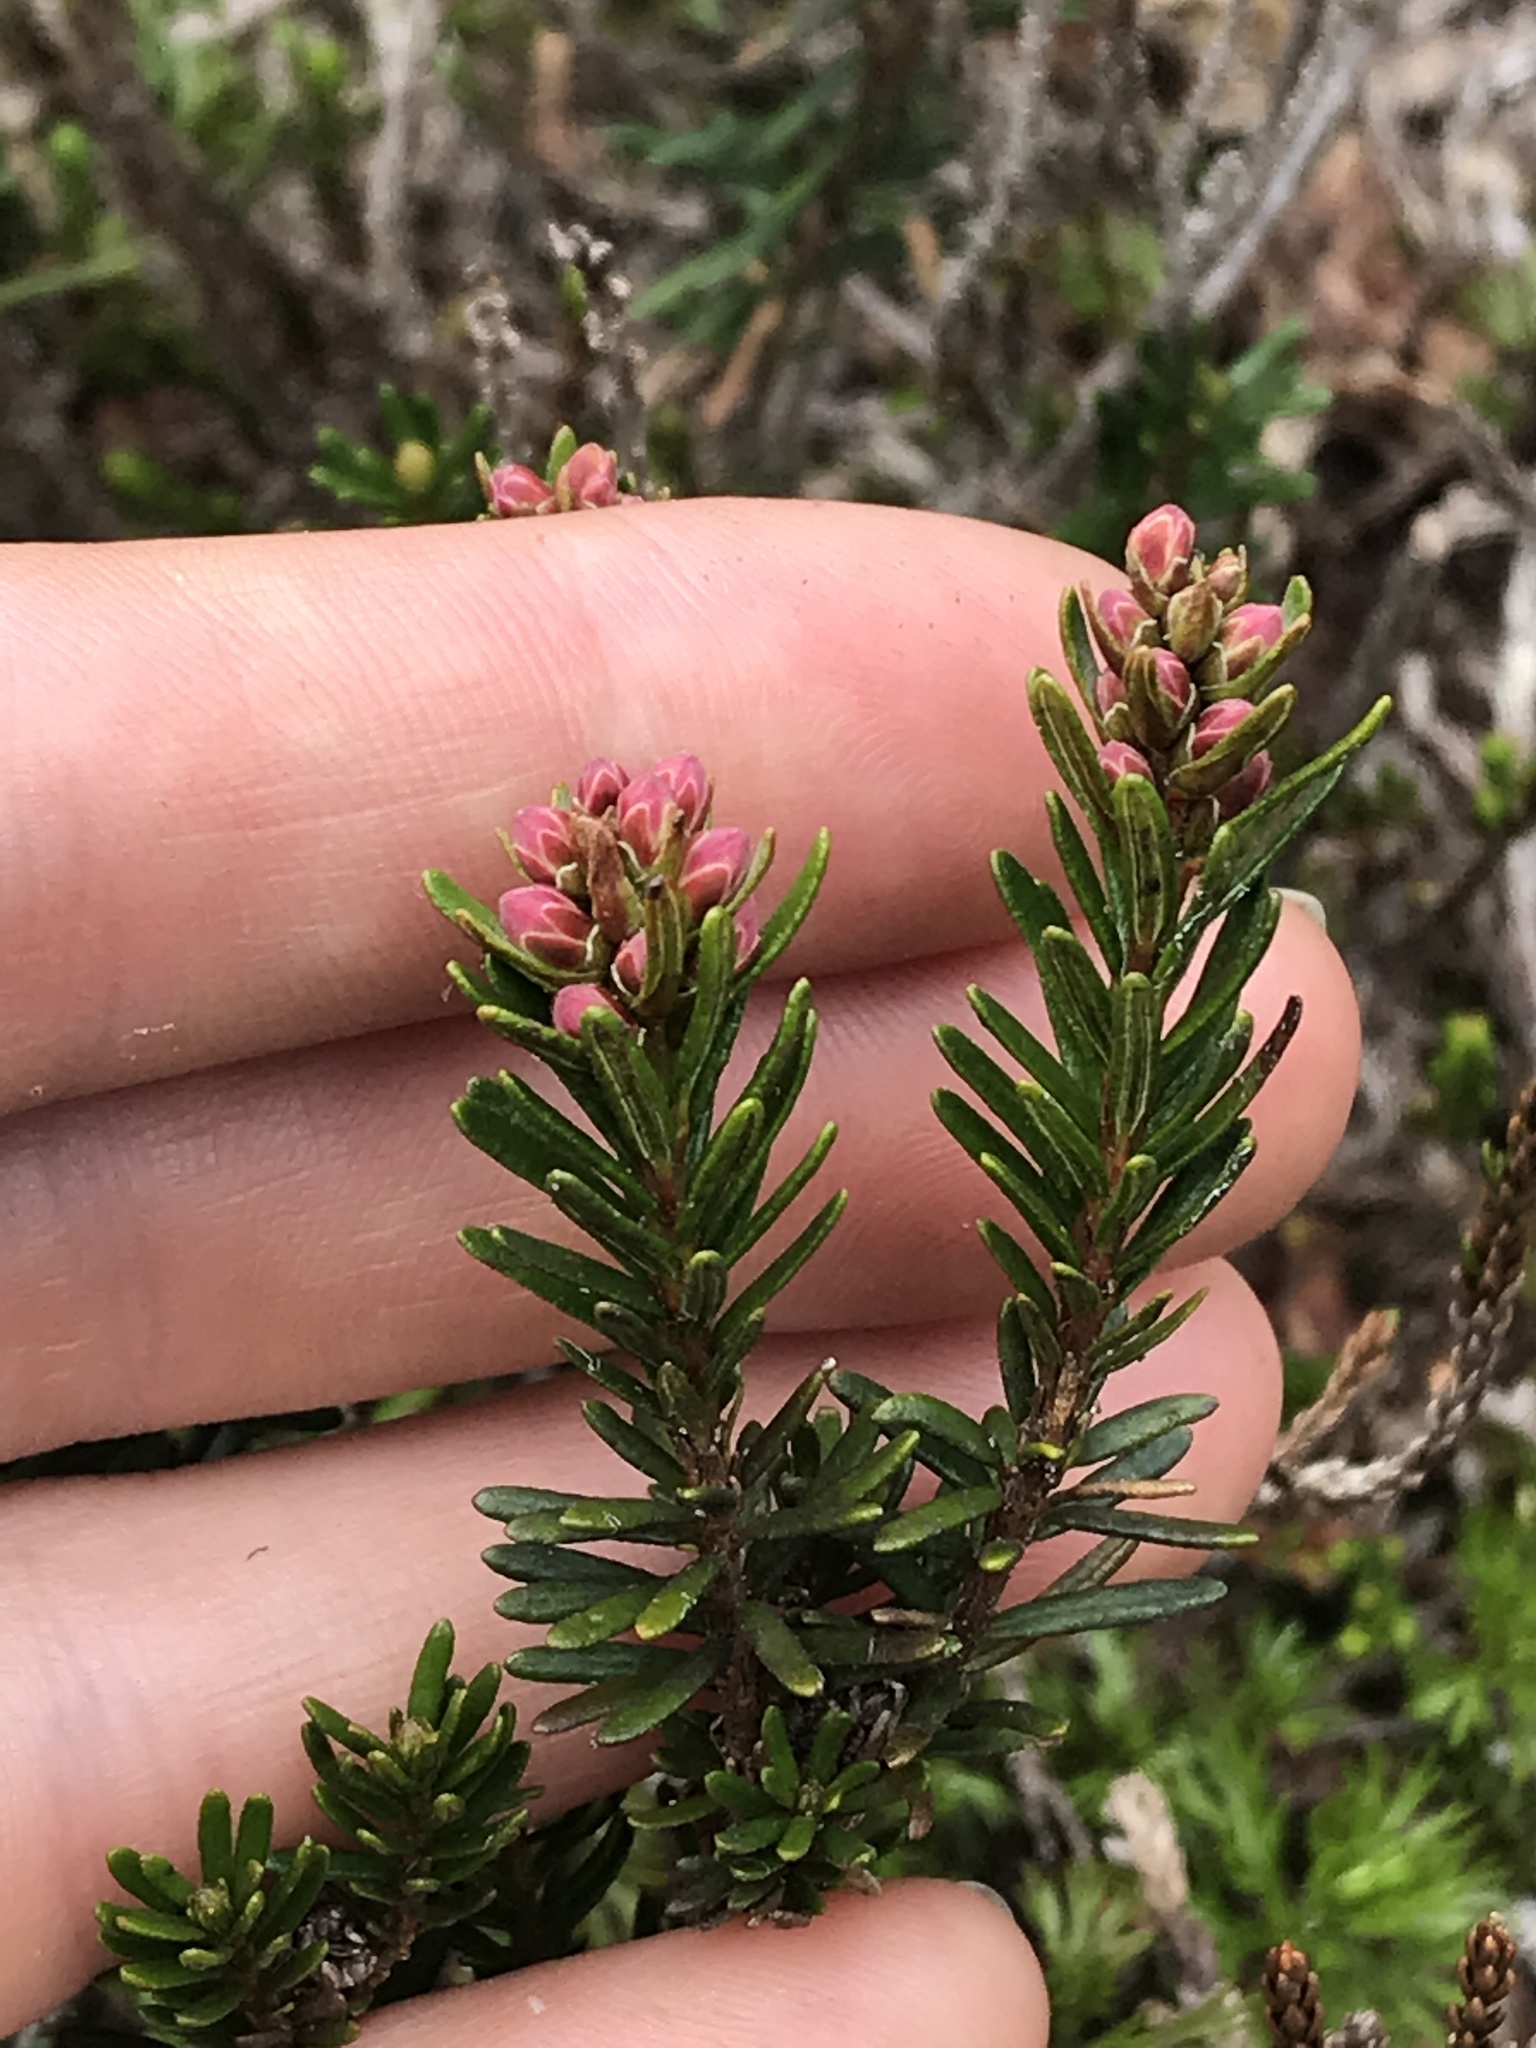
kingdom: Plantae
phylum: Tracheophyta
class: Magnoliopsida
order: Ericales
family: Ericaceae
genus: Phyllodoce
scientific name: Phyllodoce empetriformis
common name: Pink mountain heather
